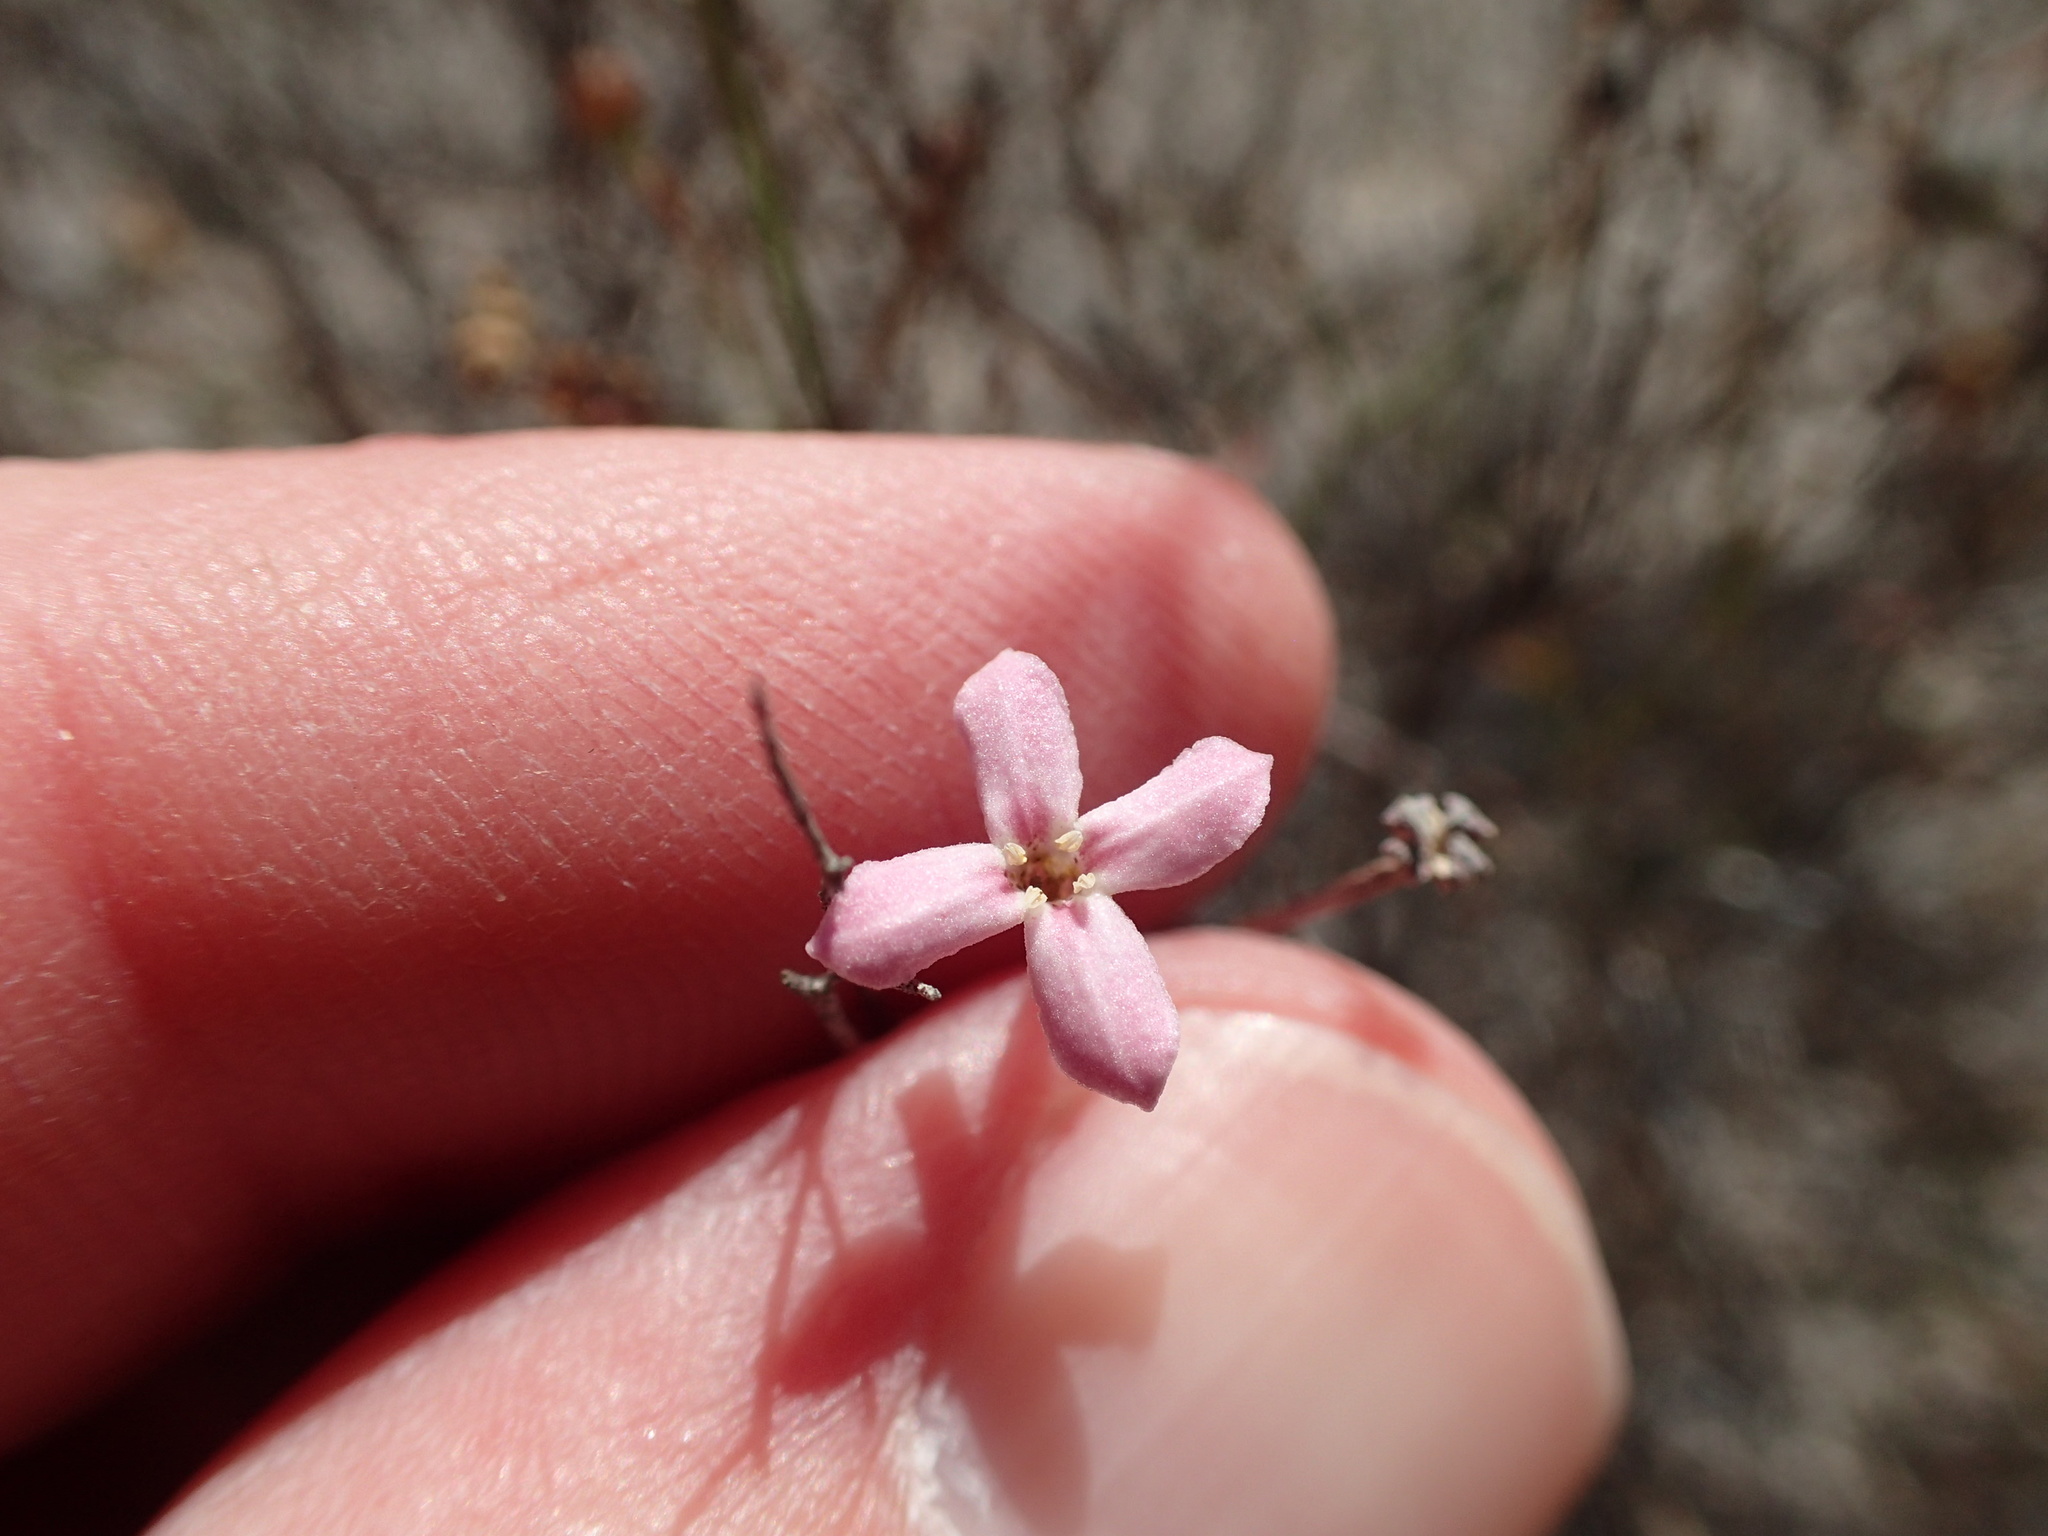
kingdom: Plantae
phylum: Tracheophyta
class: Magnoliopsida
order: Gentianales
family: Rubiaceae
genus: Stenotis
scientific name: Stenotis brevipes
